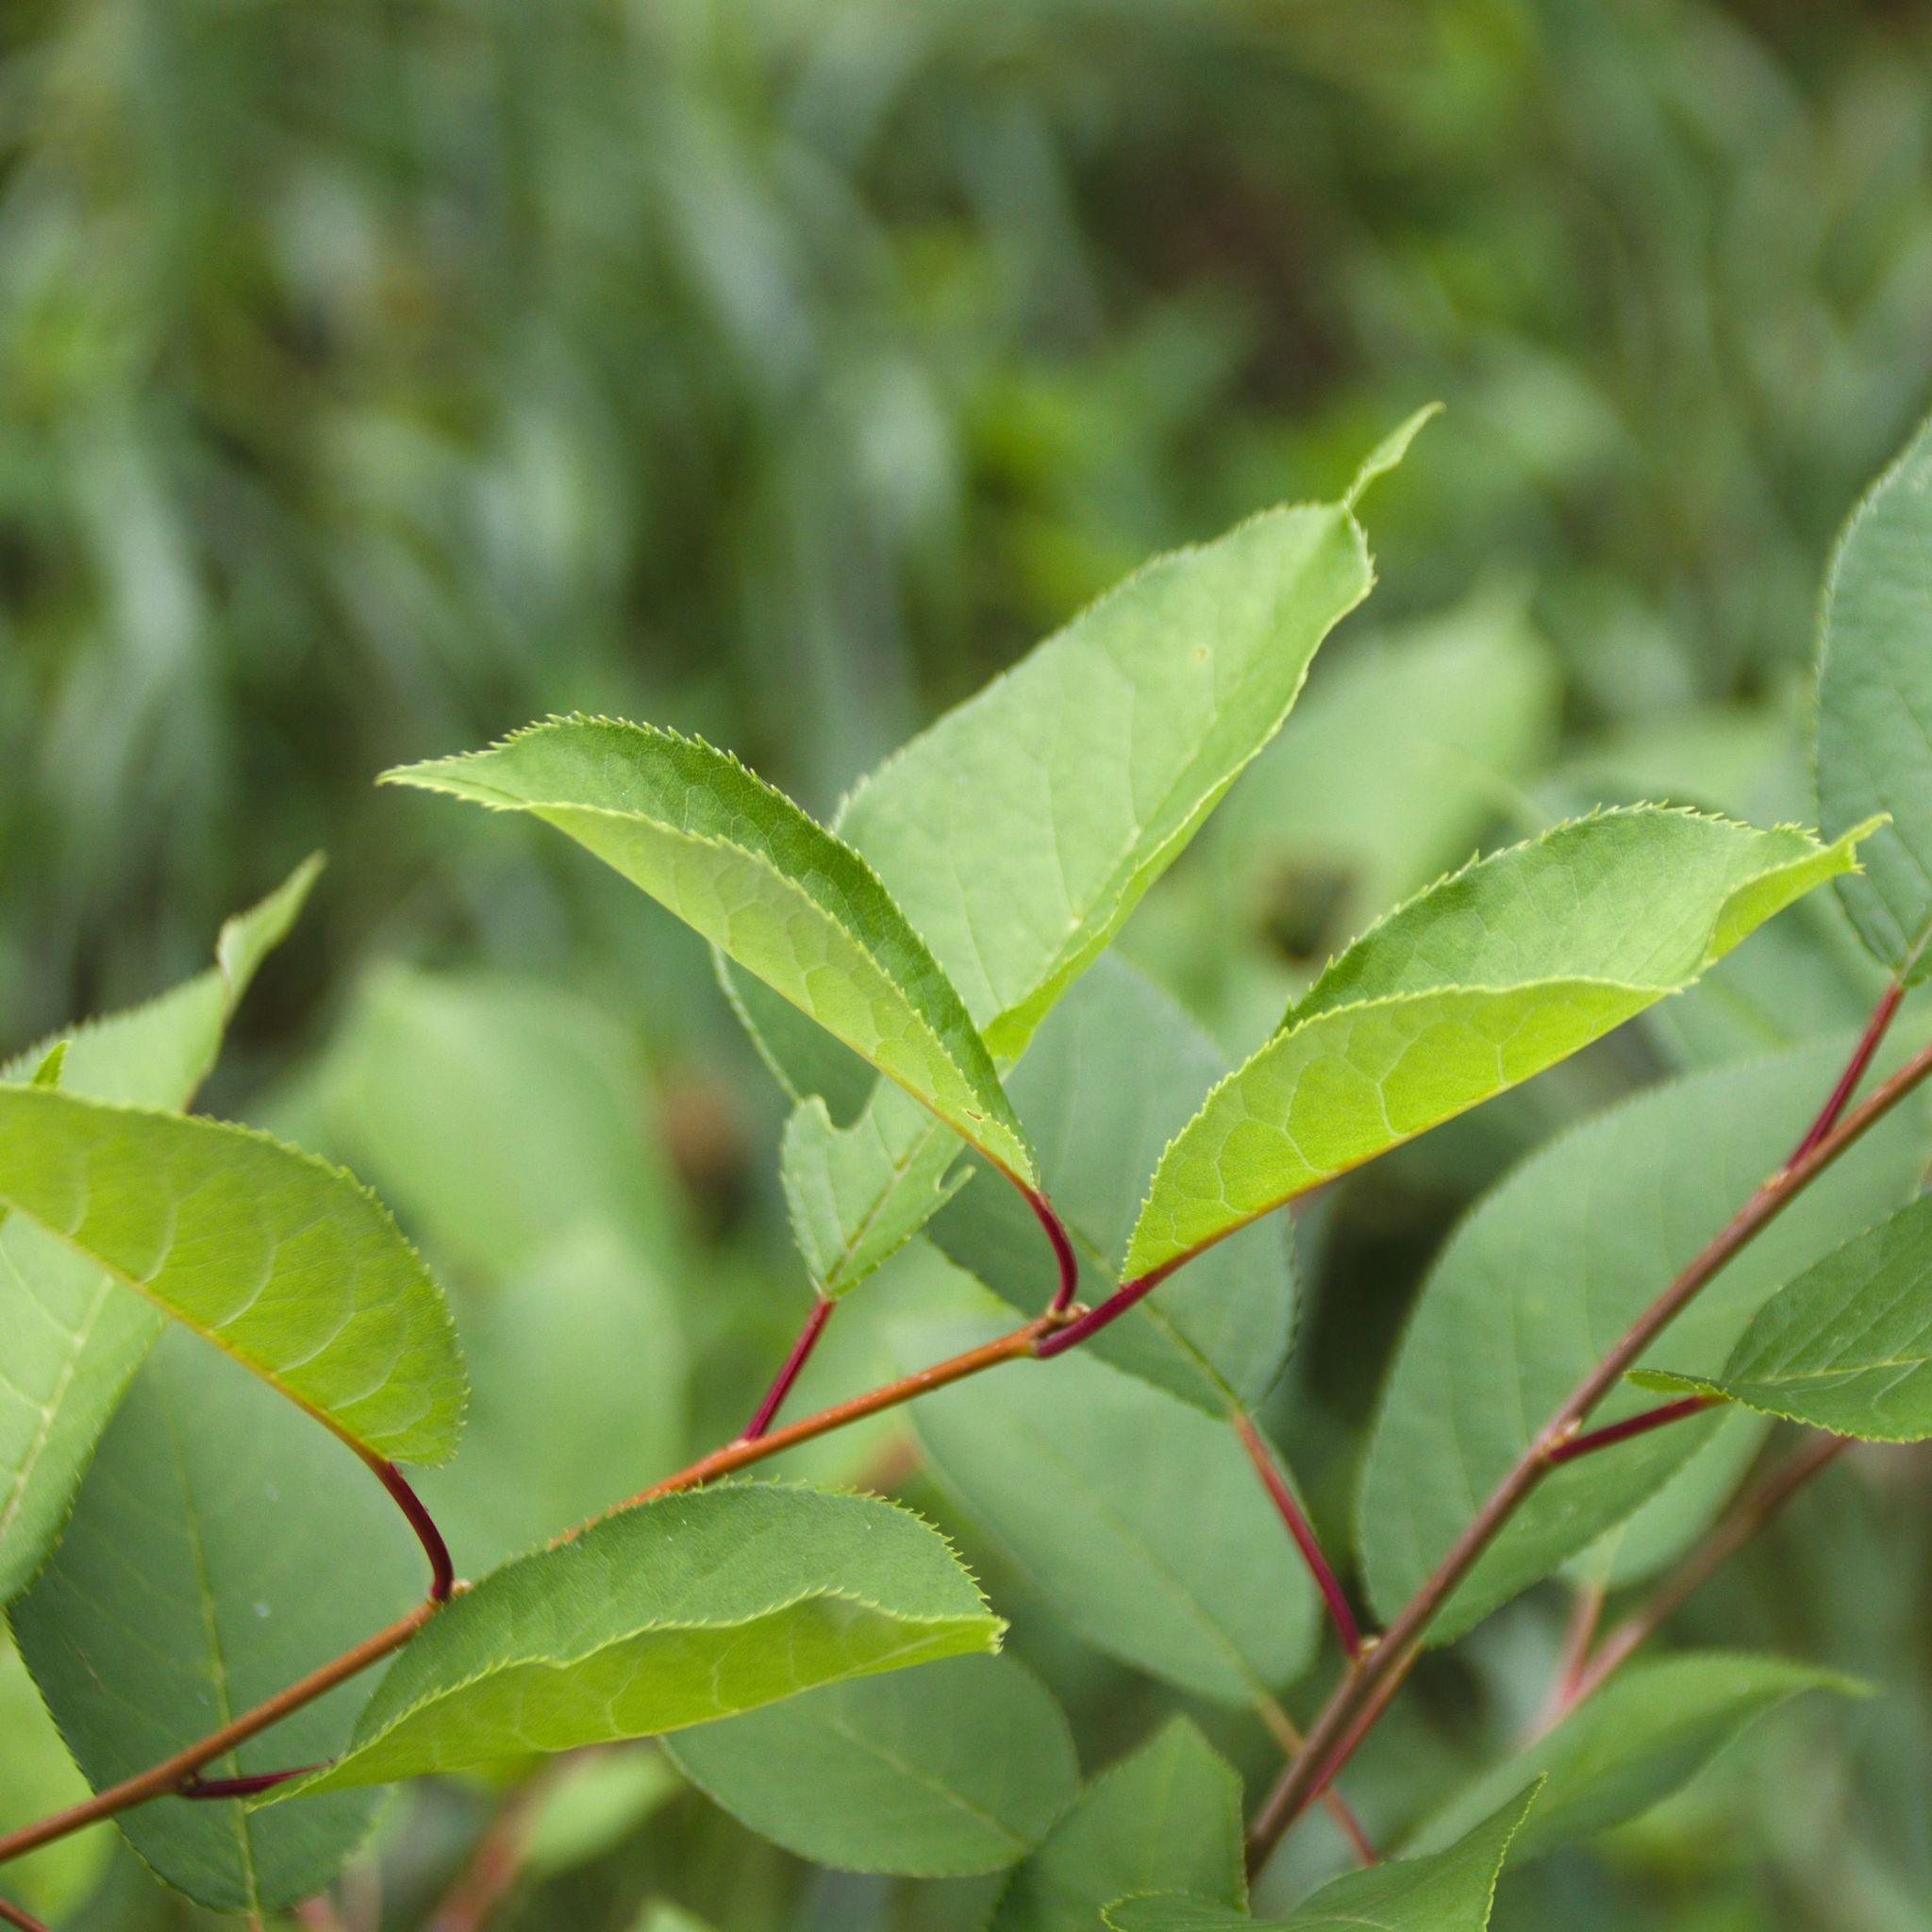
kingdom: Plantae
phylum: Tracheophyta
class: Magnoliopsida
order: Rosales
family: Rosaceae
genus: Prunus
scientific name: Prunus virginiana
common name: Chokecherry
